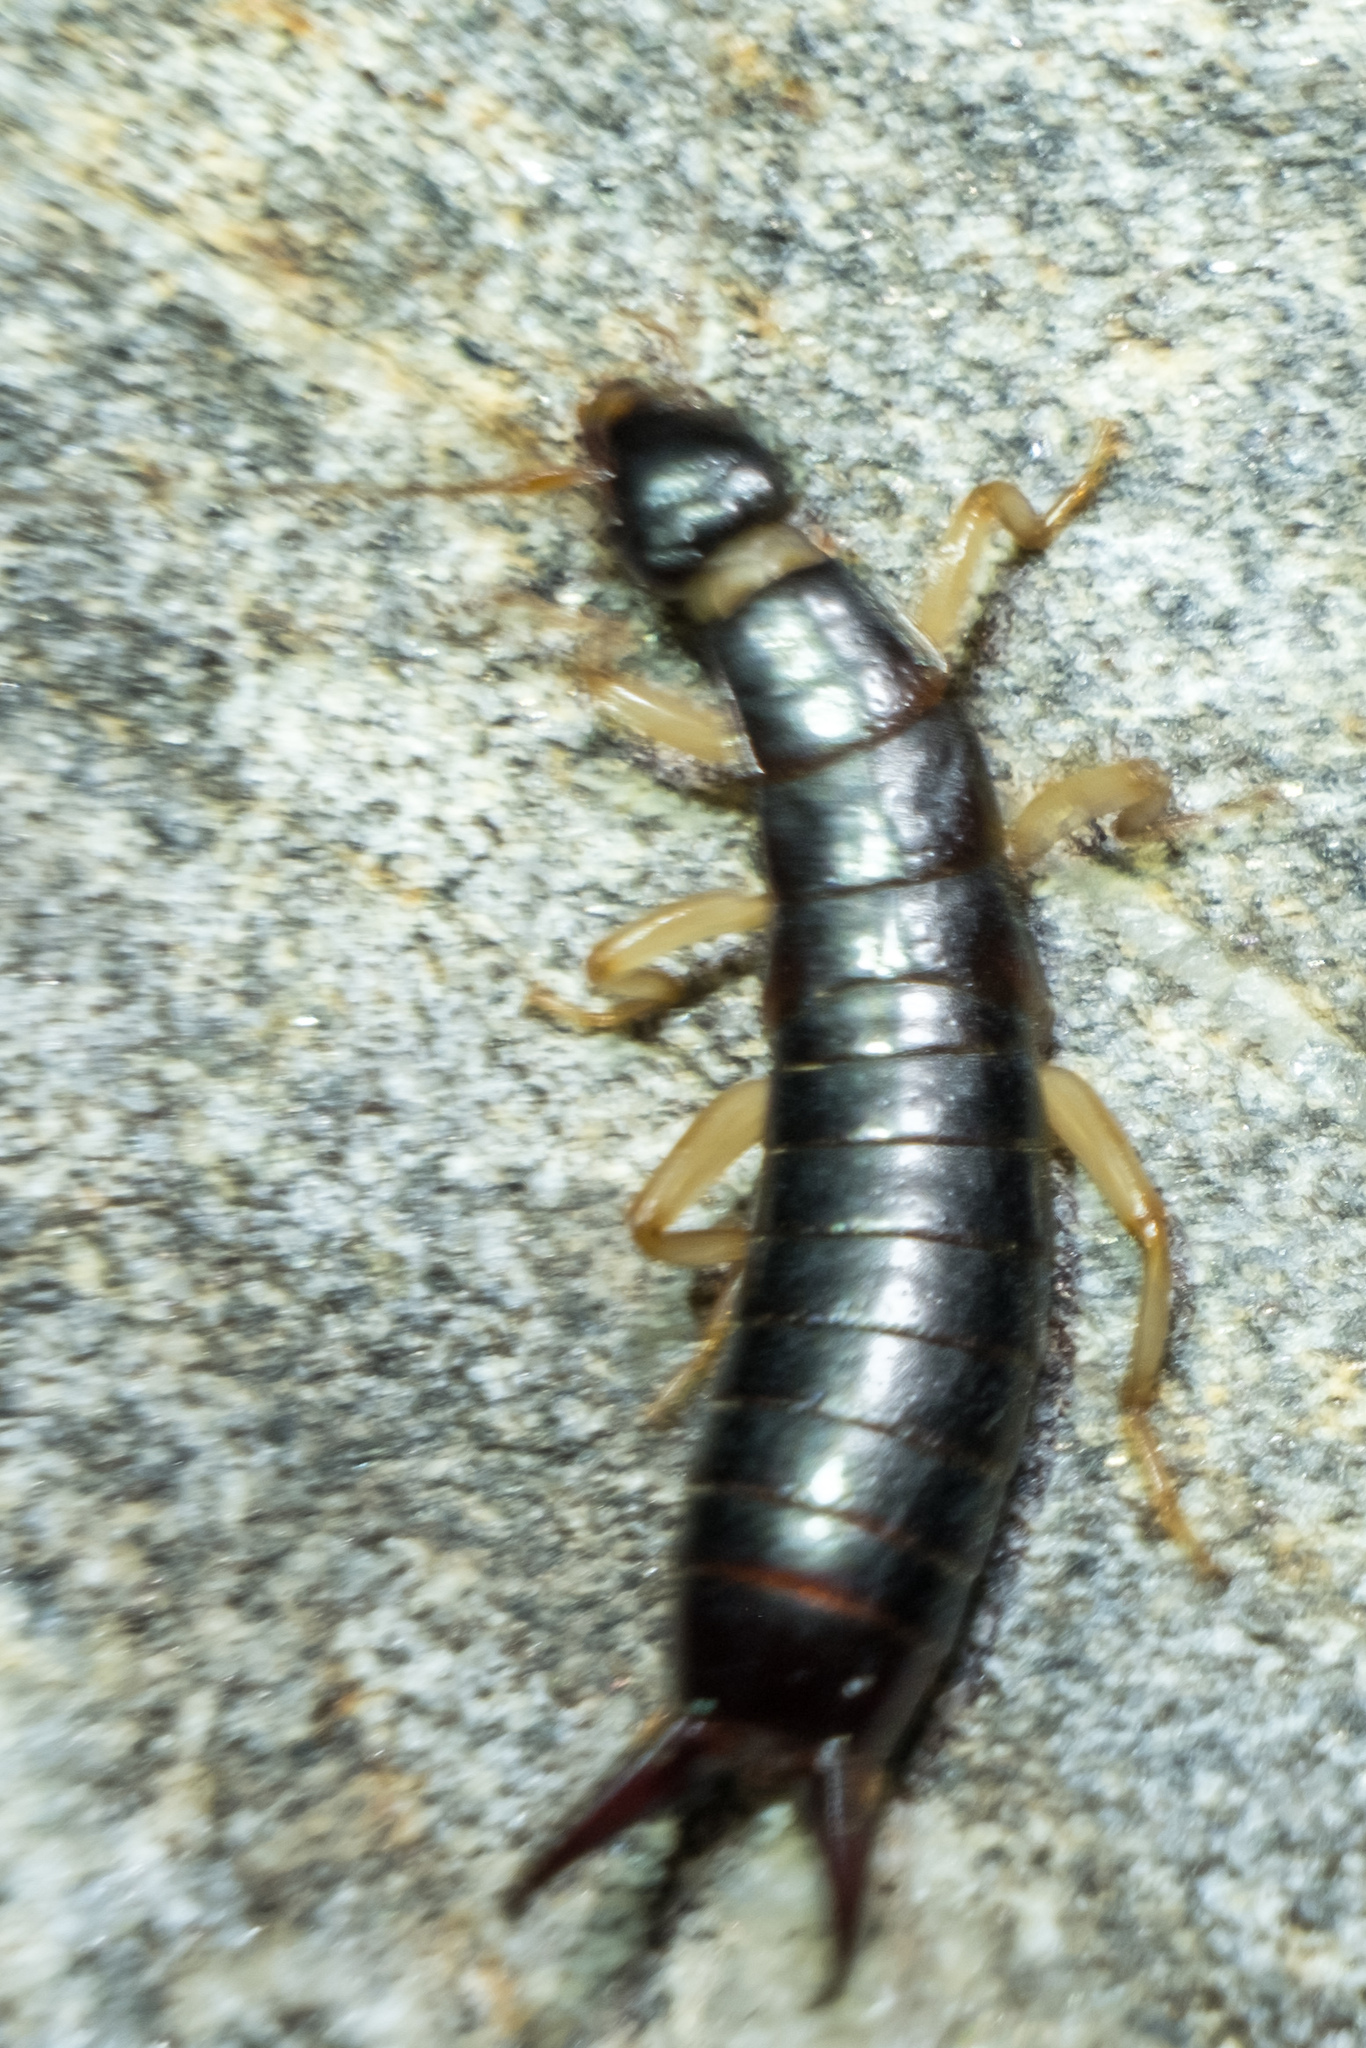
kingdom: Animalia
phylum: Arthropoda
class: Insecta
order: Dermaptera
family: Anisolabididae
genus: Anisolabis
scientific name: Anisolabis maritima
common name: Maritime earwig
